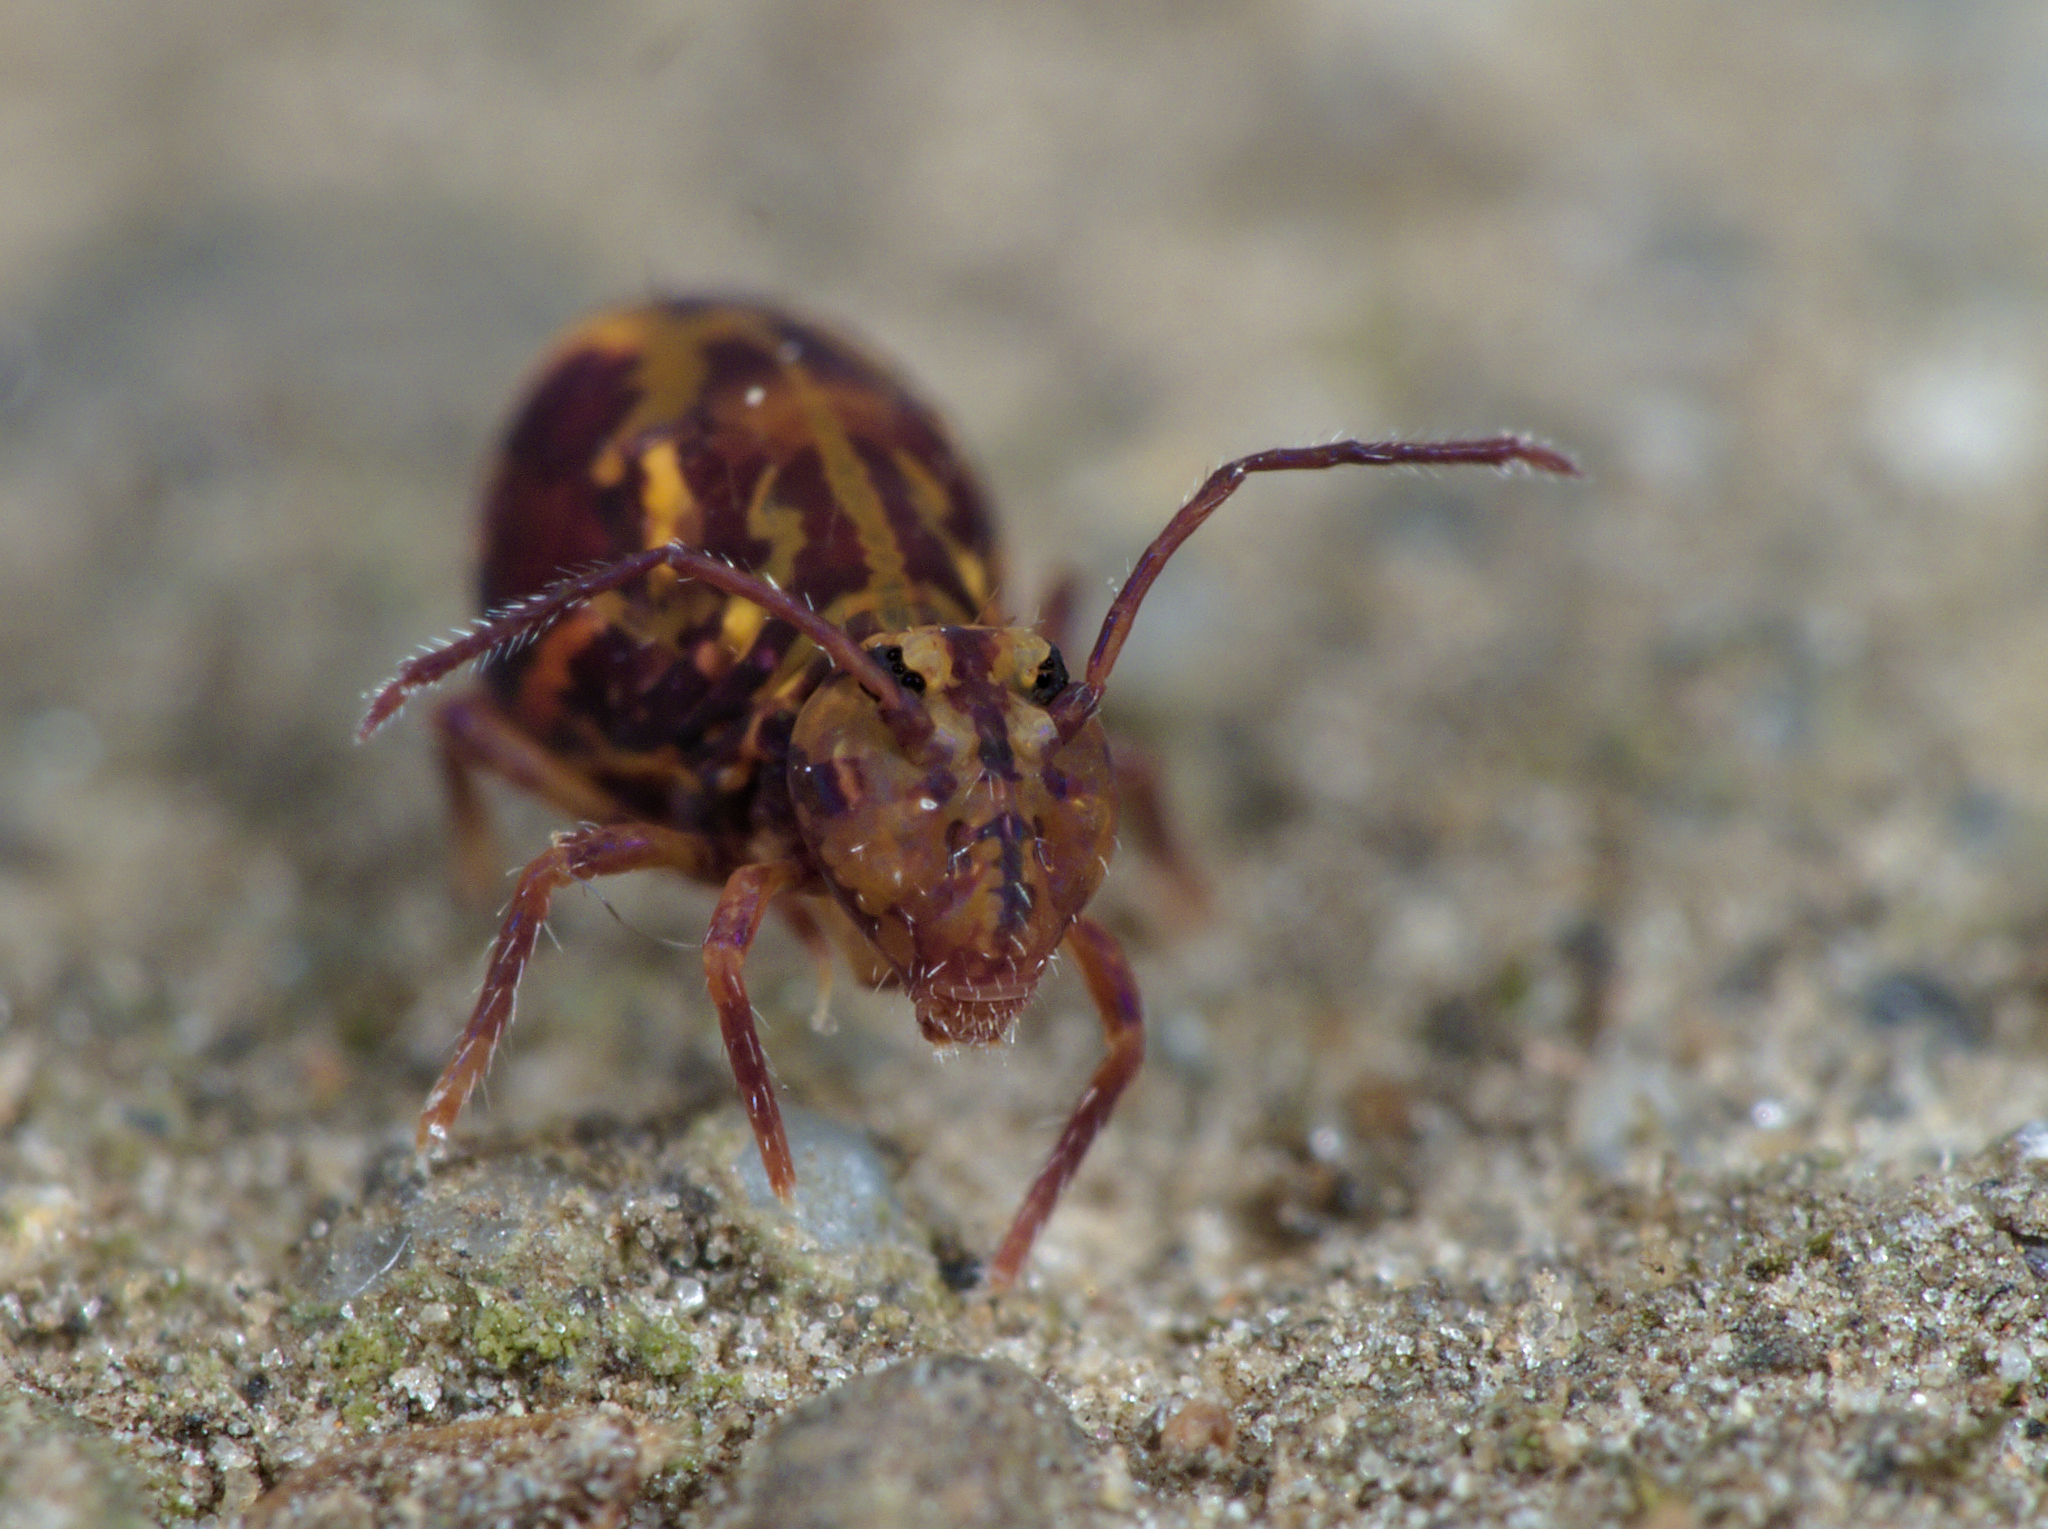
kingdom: Animalia
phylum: Arthropoda
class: Collembola
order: Symphypleona
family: Dicyrtomidae
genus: Dicyrtomina
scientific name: Dicyrtomina ornata
